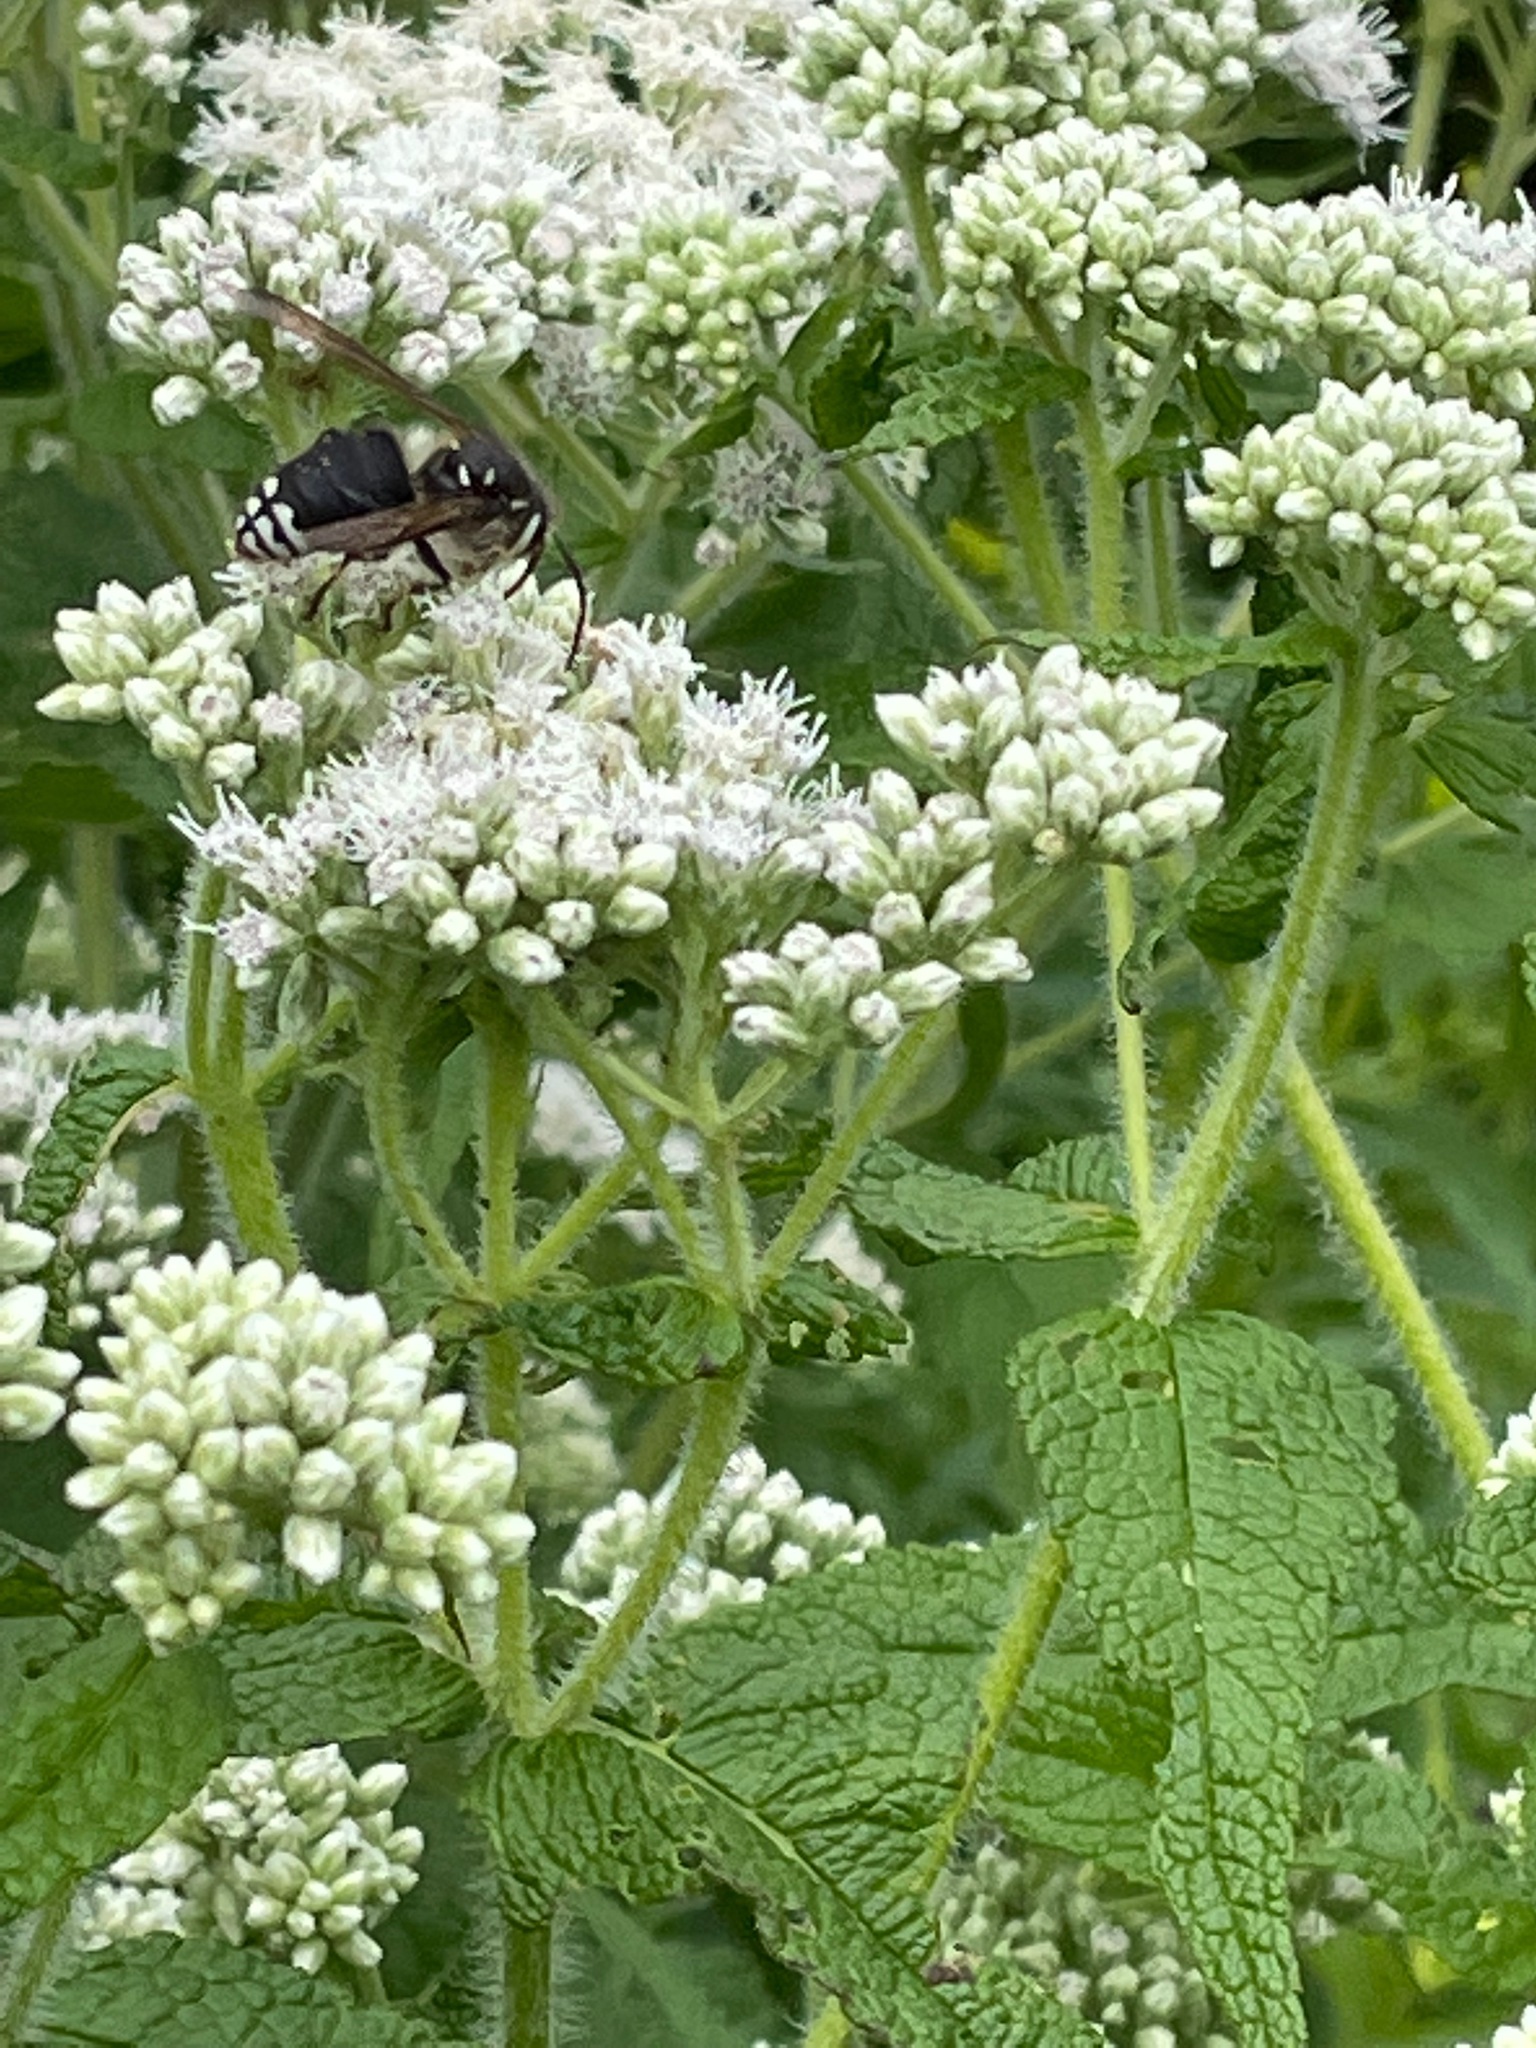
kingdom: Animalia
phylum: Arthropoda
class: Insecta
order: Hymenoptera
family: Vespidae
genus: Dolichovespula
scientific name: Dolichovespula maculata
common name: Bald-faced hornet
